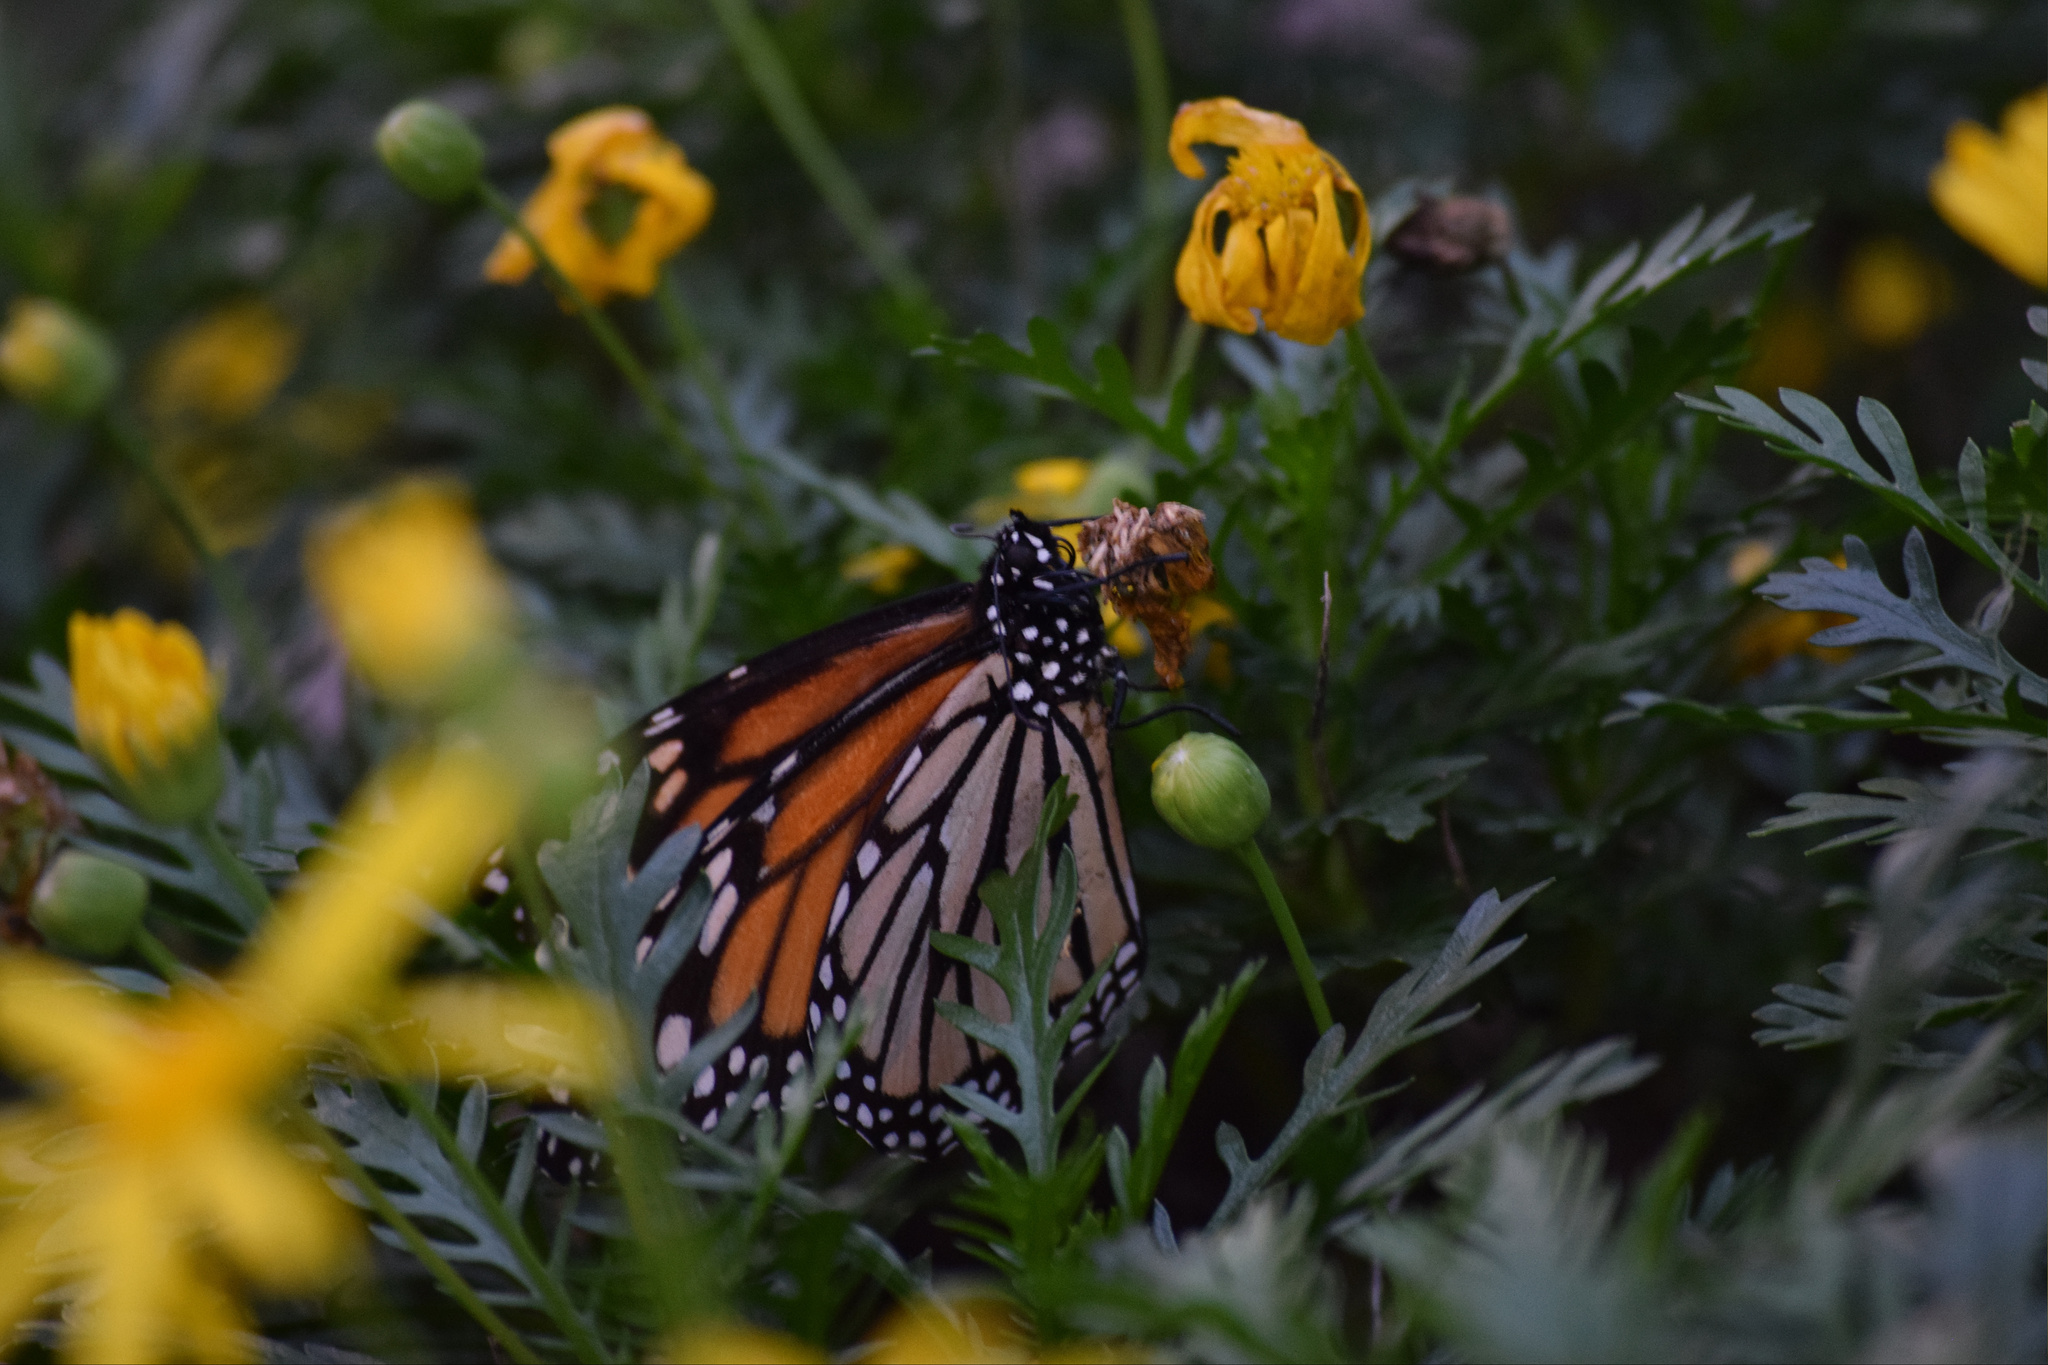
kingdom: Animalia
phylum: Arthropoda
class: Insecta
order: Lepidoptera
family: Nymphalidae
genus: Danaus
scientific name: Danaus plexippus
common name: Monarch
